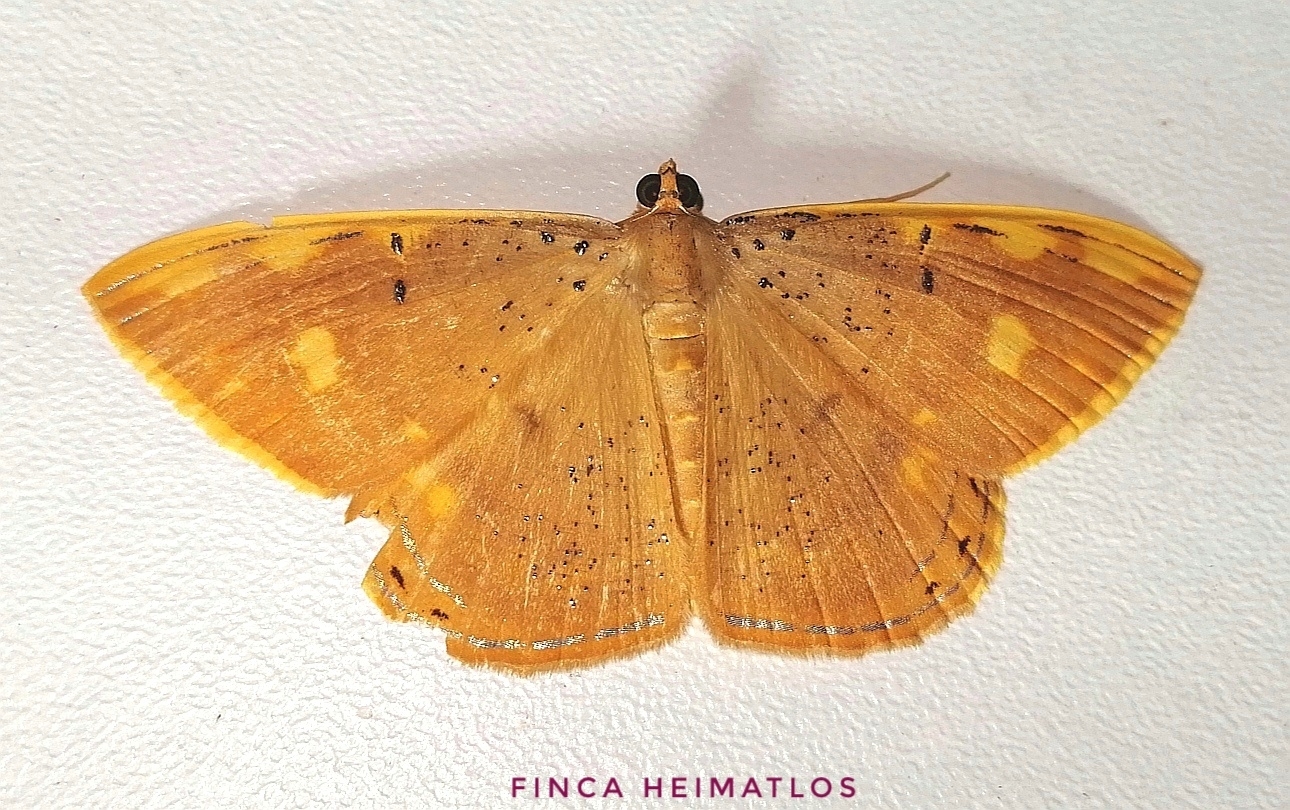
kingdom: Animalia
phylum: Arthropoda
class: Insecta
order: Lepidoptera
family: Geometridae
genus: Palyas
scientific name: Palyas leprosa
